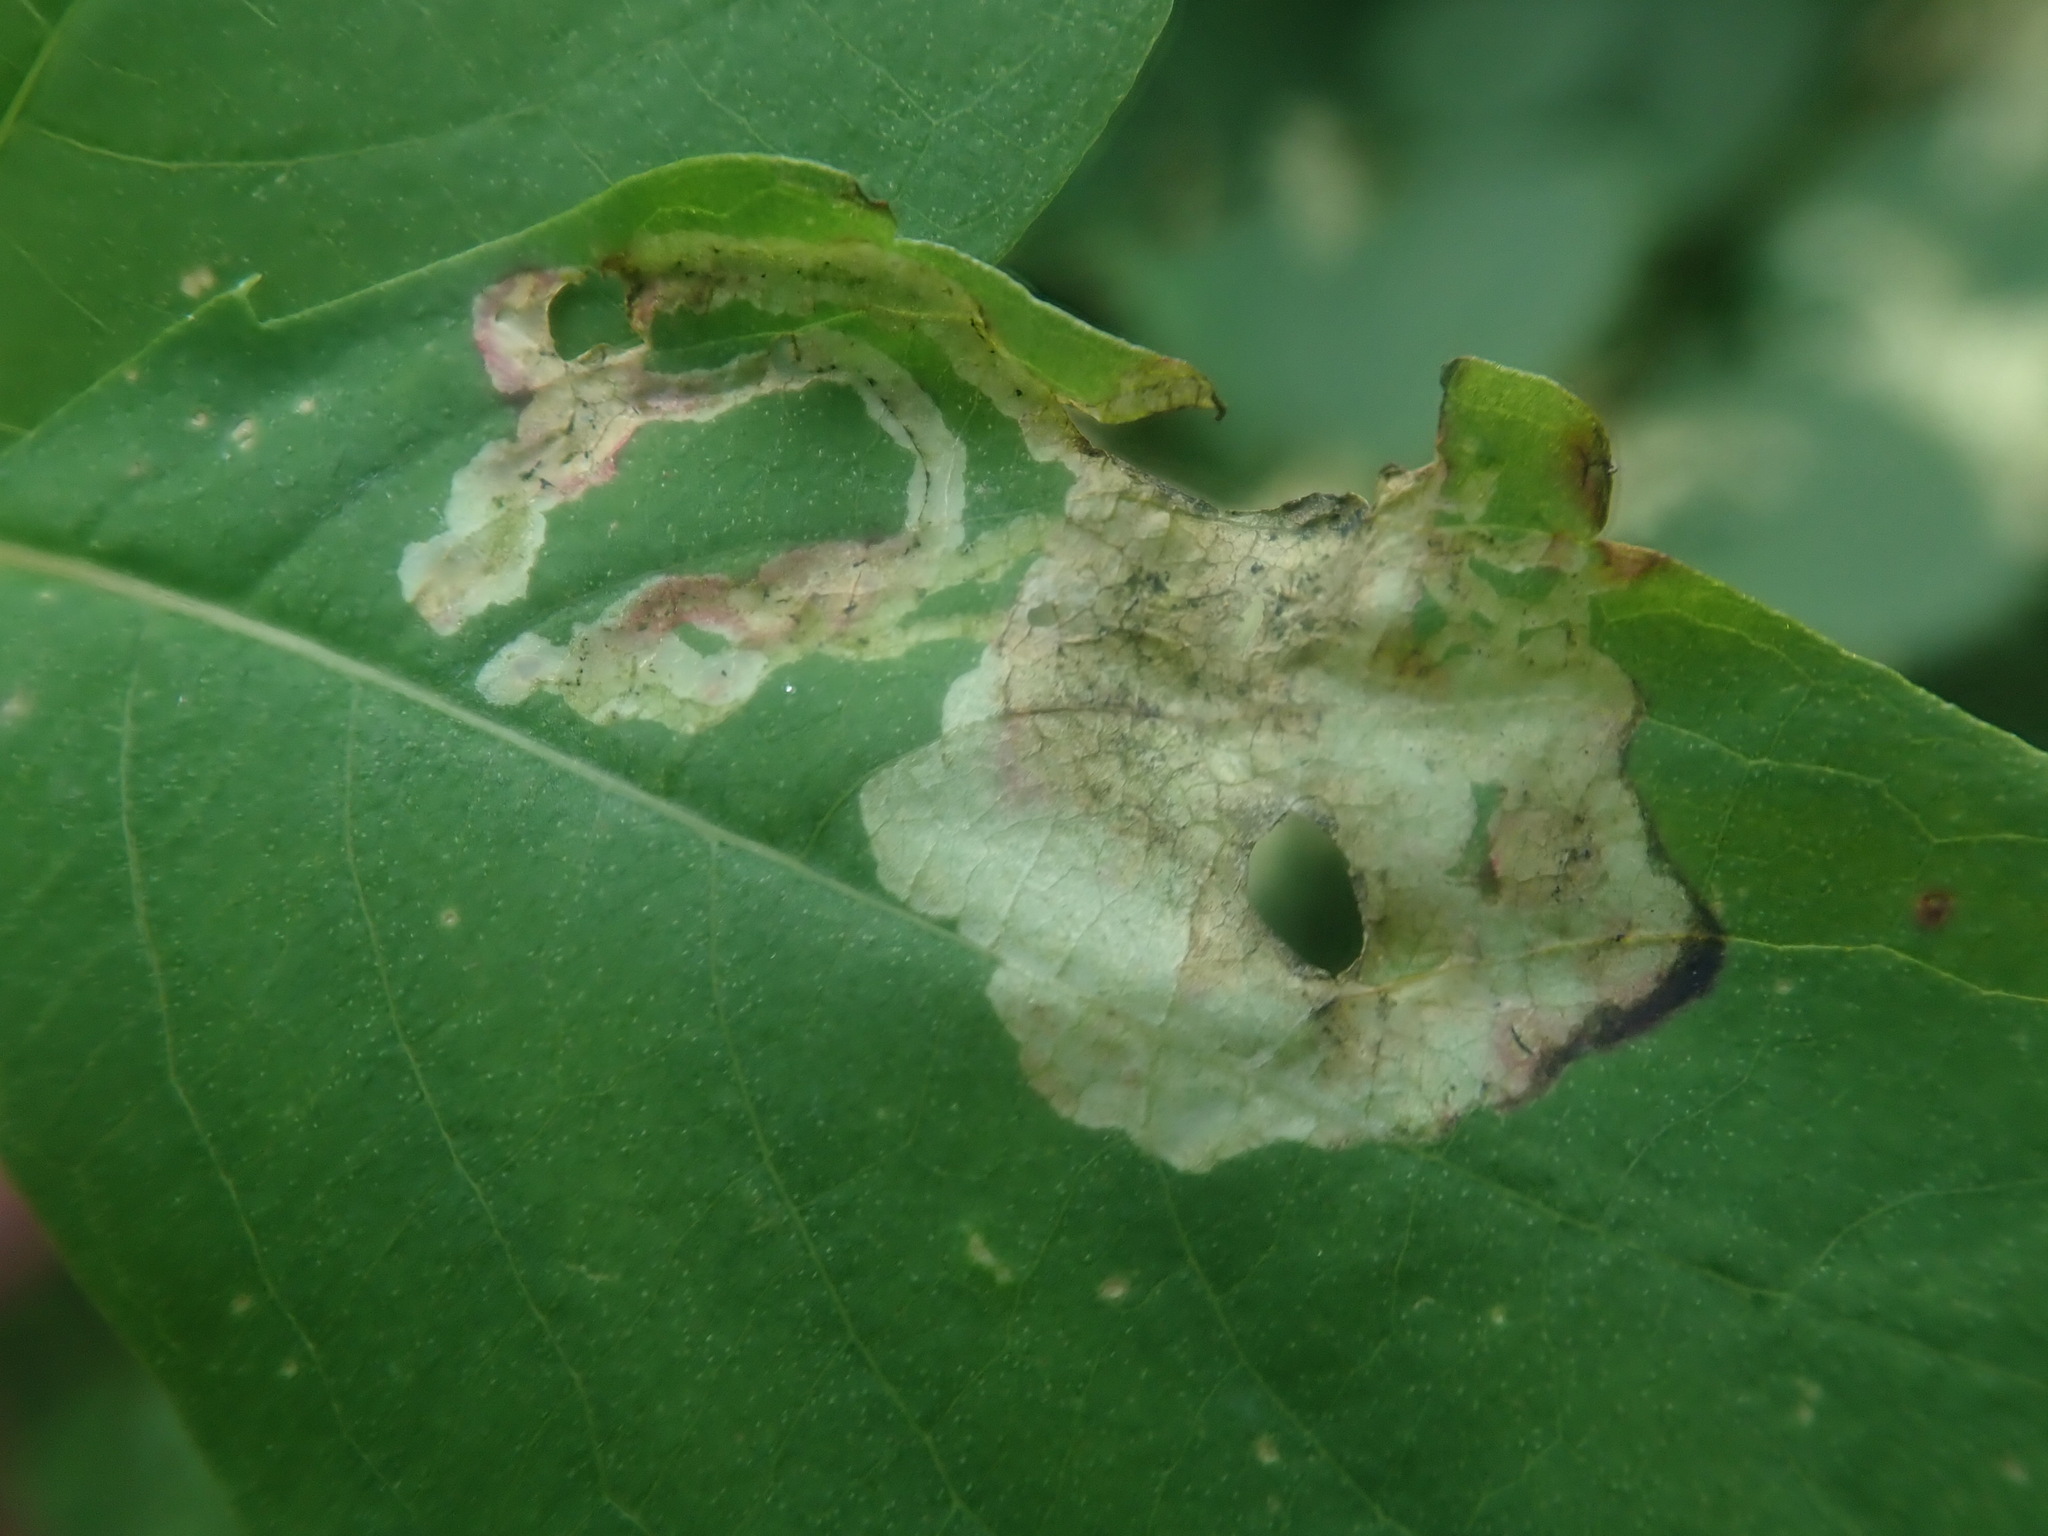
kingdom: Animalia
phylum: Arthropoda
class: Insecta
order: Diptera
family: Agromyzidae
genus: Phytoliriomyza
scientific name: Phytoliriomyza melampyga
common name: Jewelweed leaf-miner fly
